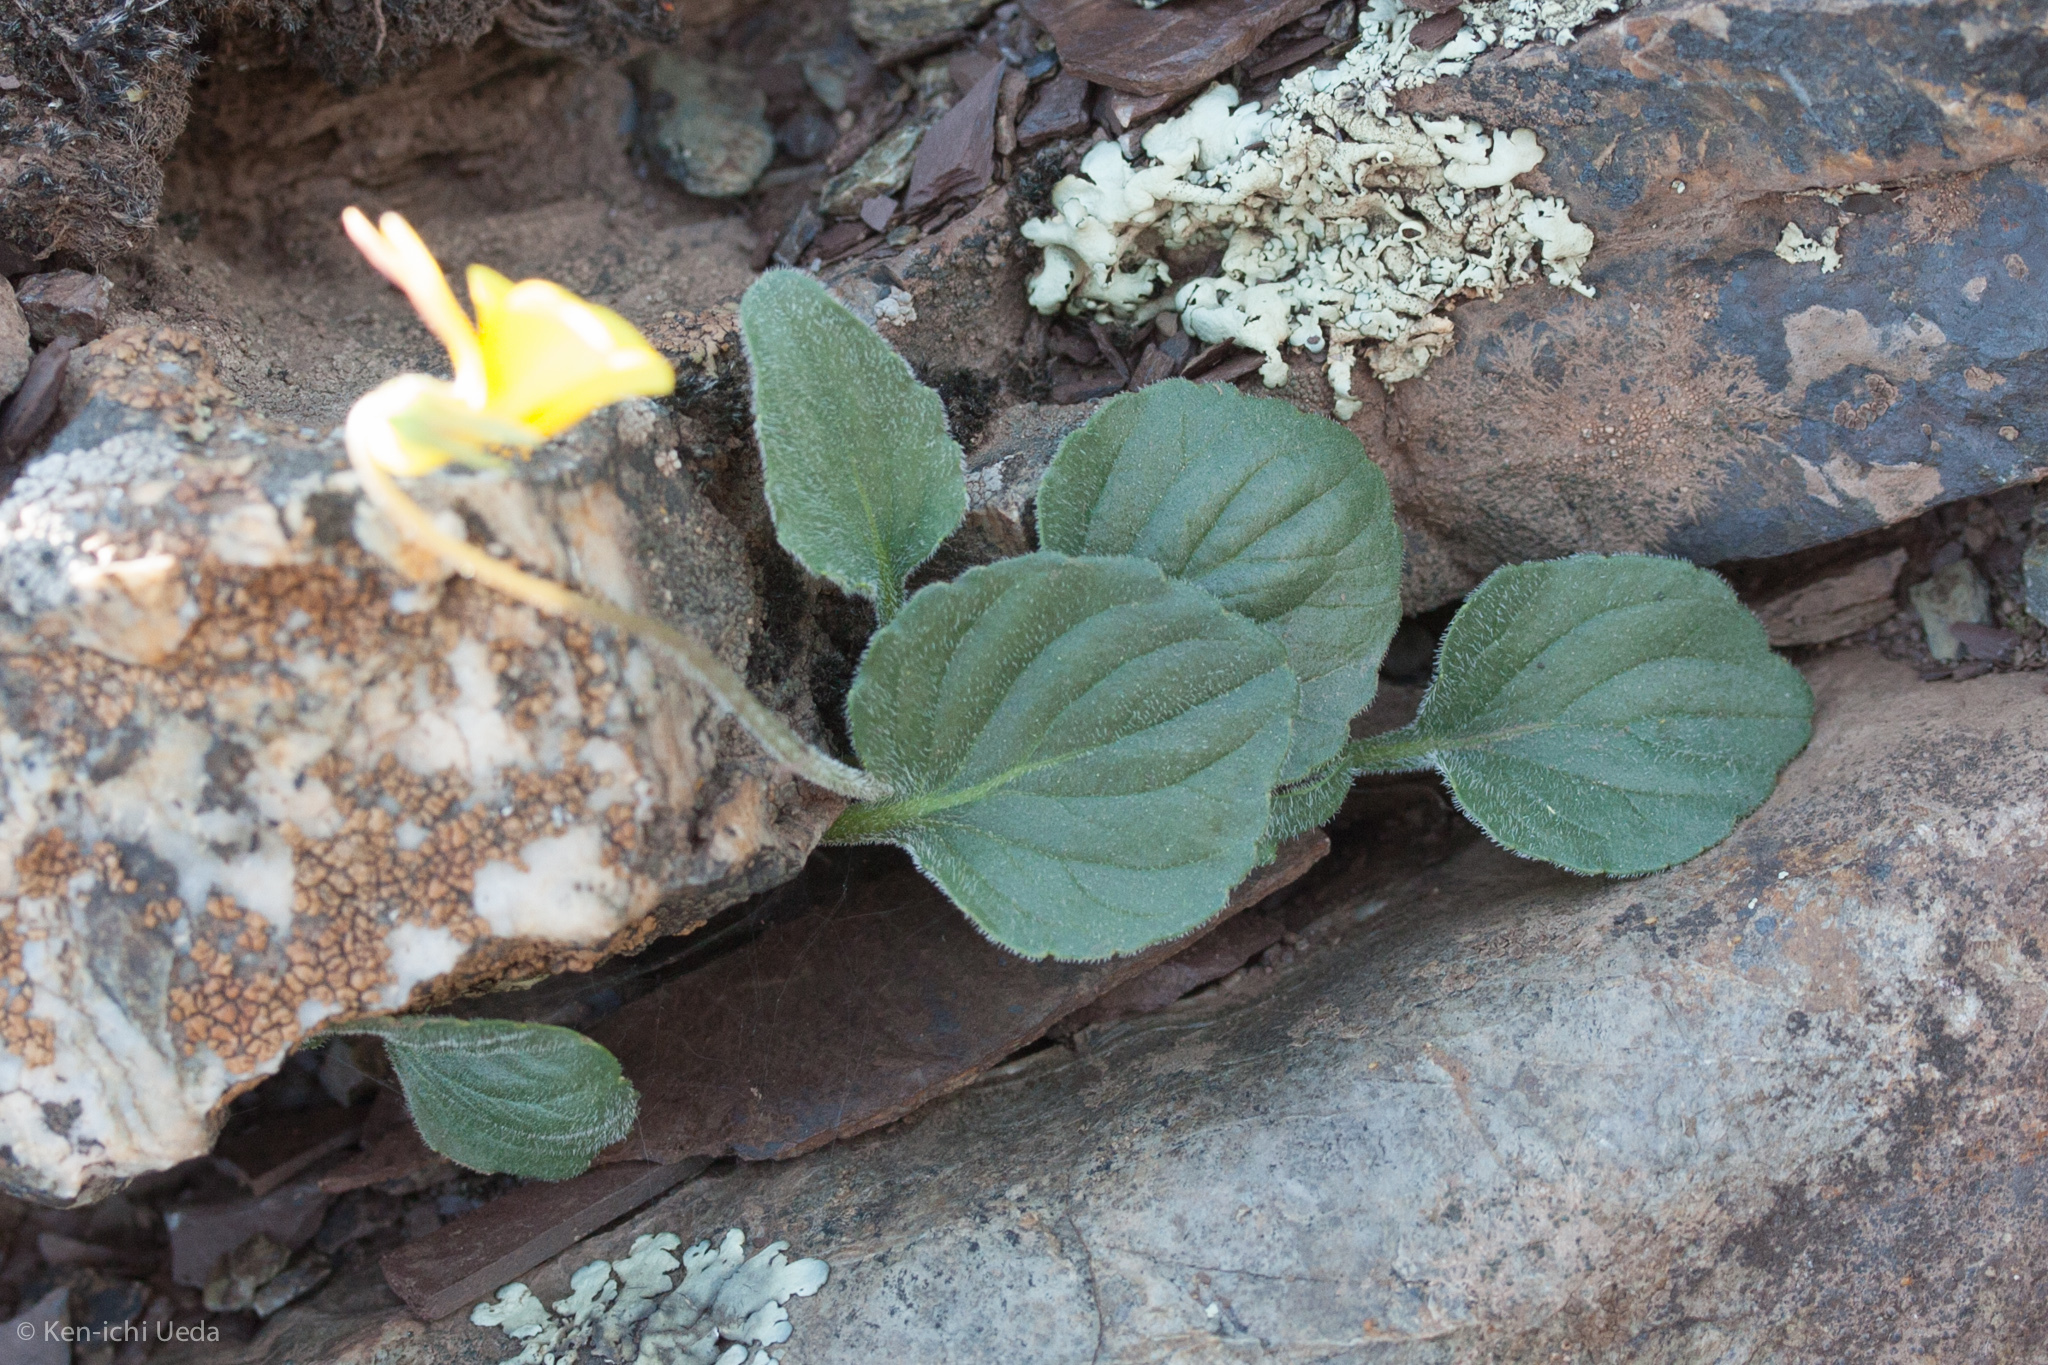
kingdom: Plantae
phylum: Tracheophyta
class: Magnoliopsida
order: Malpighiales
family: Violaceae
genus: Viola
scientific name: Viola purpurea
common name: Pine violet
